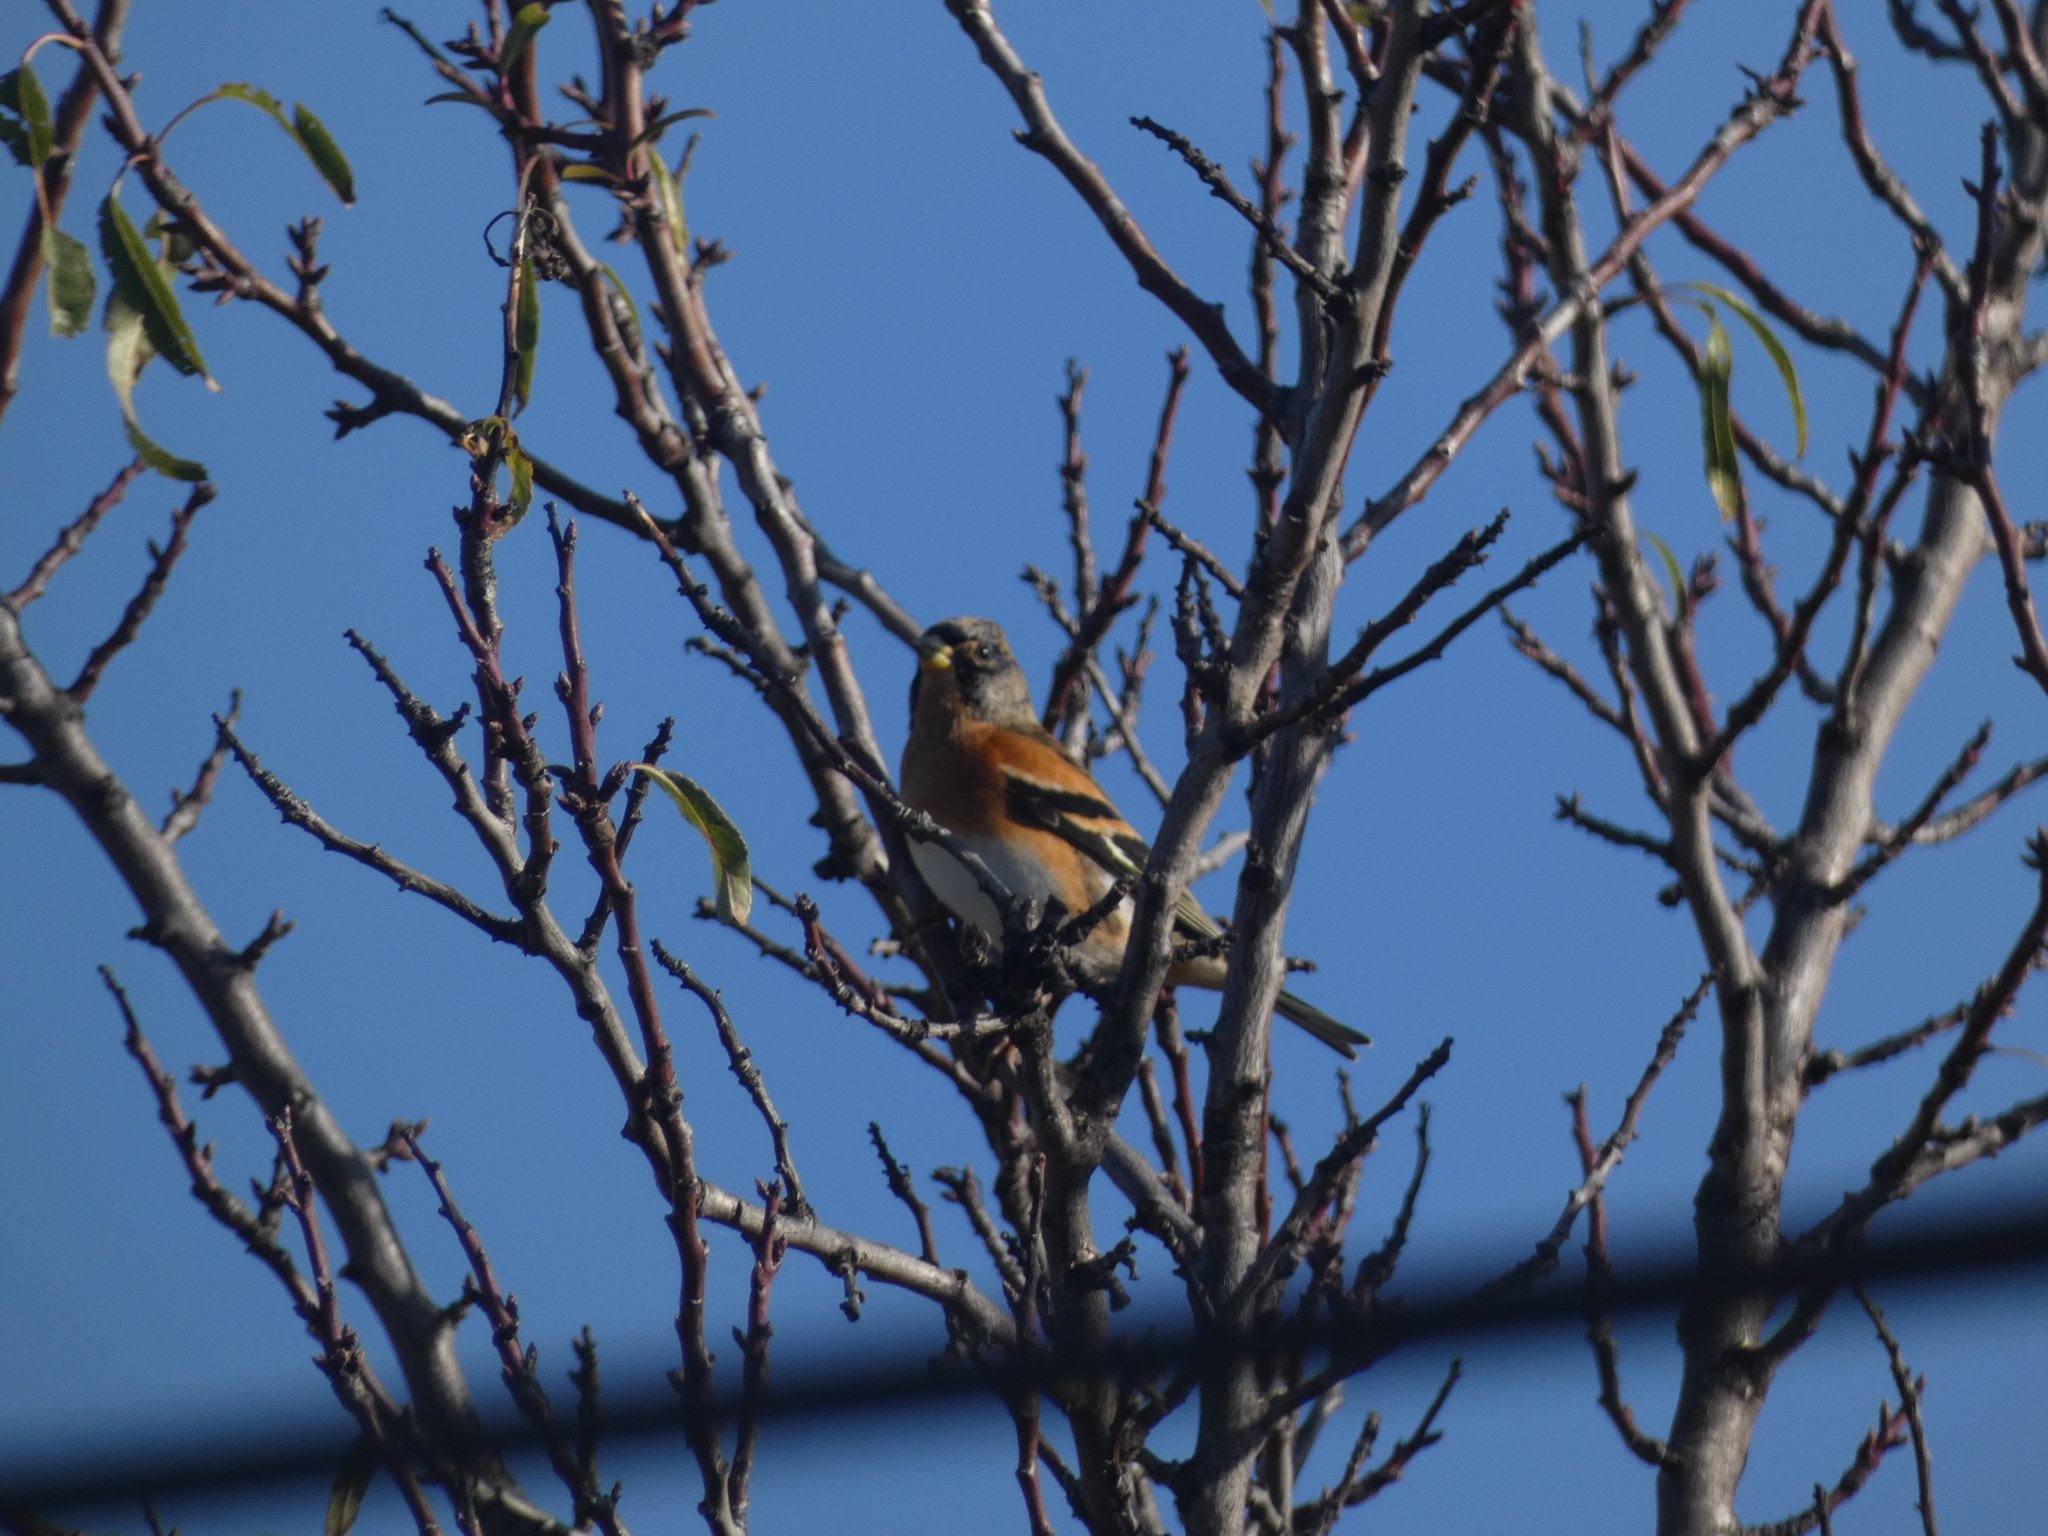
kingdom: Animalia
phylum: Chordata
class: Aves
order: Passeriformes
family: Fringillidae
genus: Fringilla
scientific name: Fringilla montifringilla
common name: Brambling
